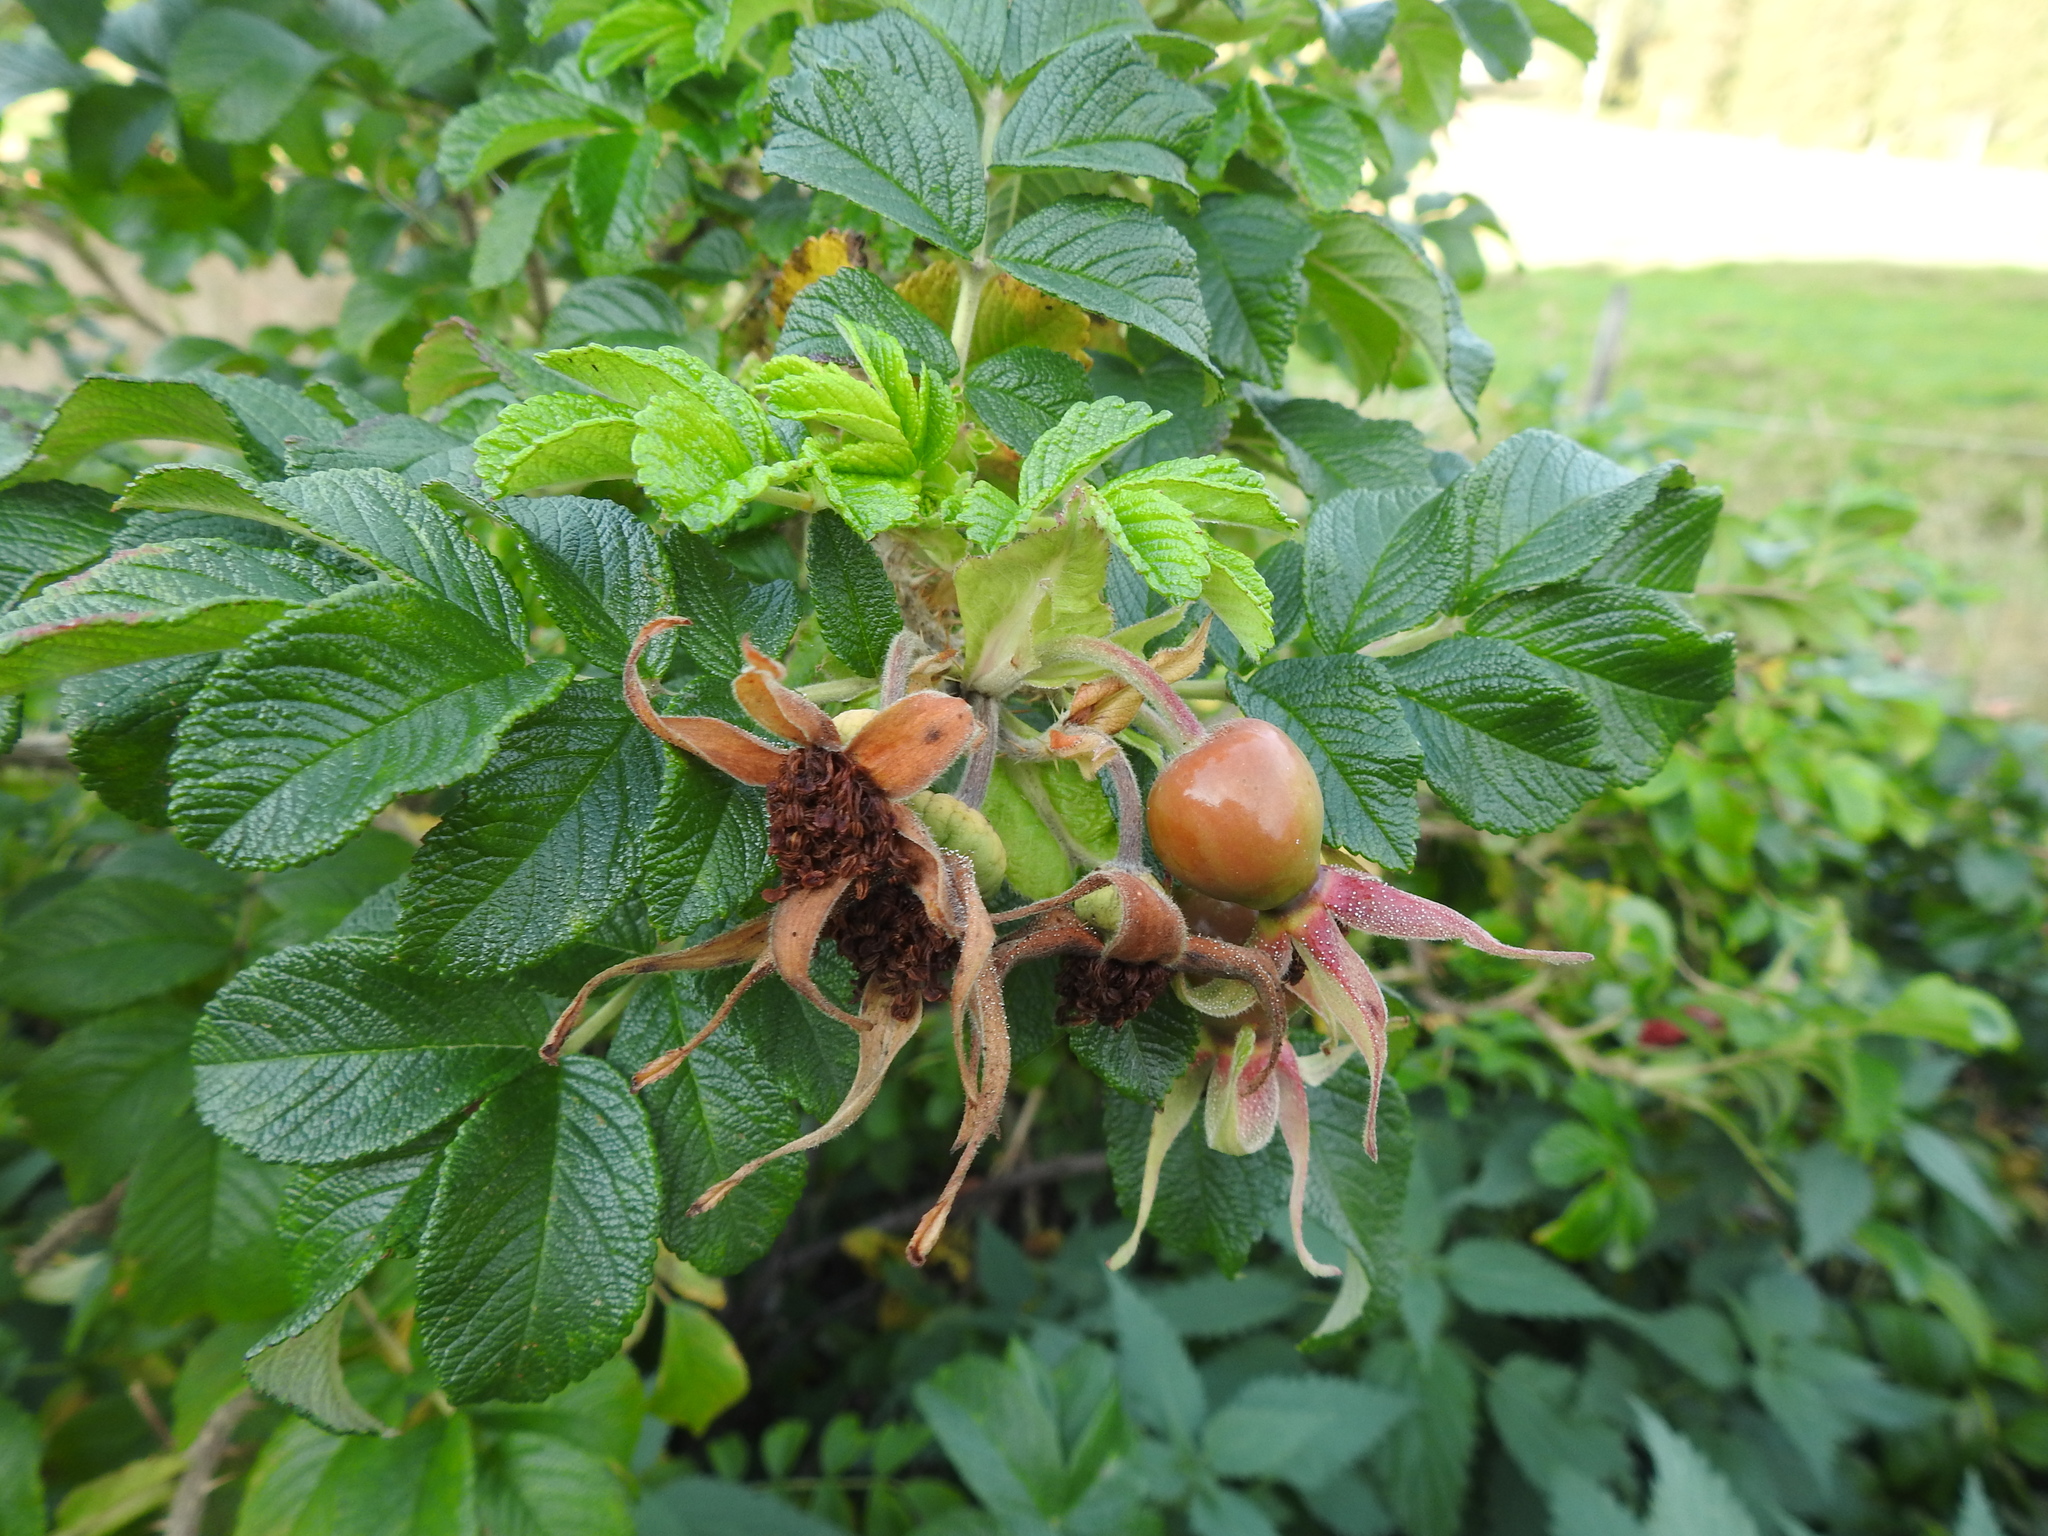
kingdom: Plantae
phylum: Tracheophyta
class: Magnoliopsida
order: Rosales
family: Rosaceae
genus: Rosa
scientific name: Rosa rugosa
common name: Japanese rose
